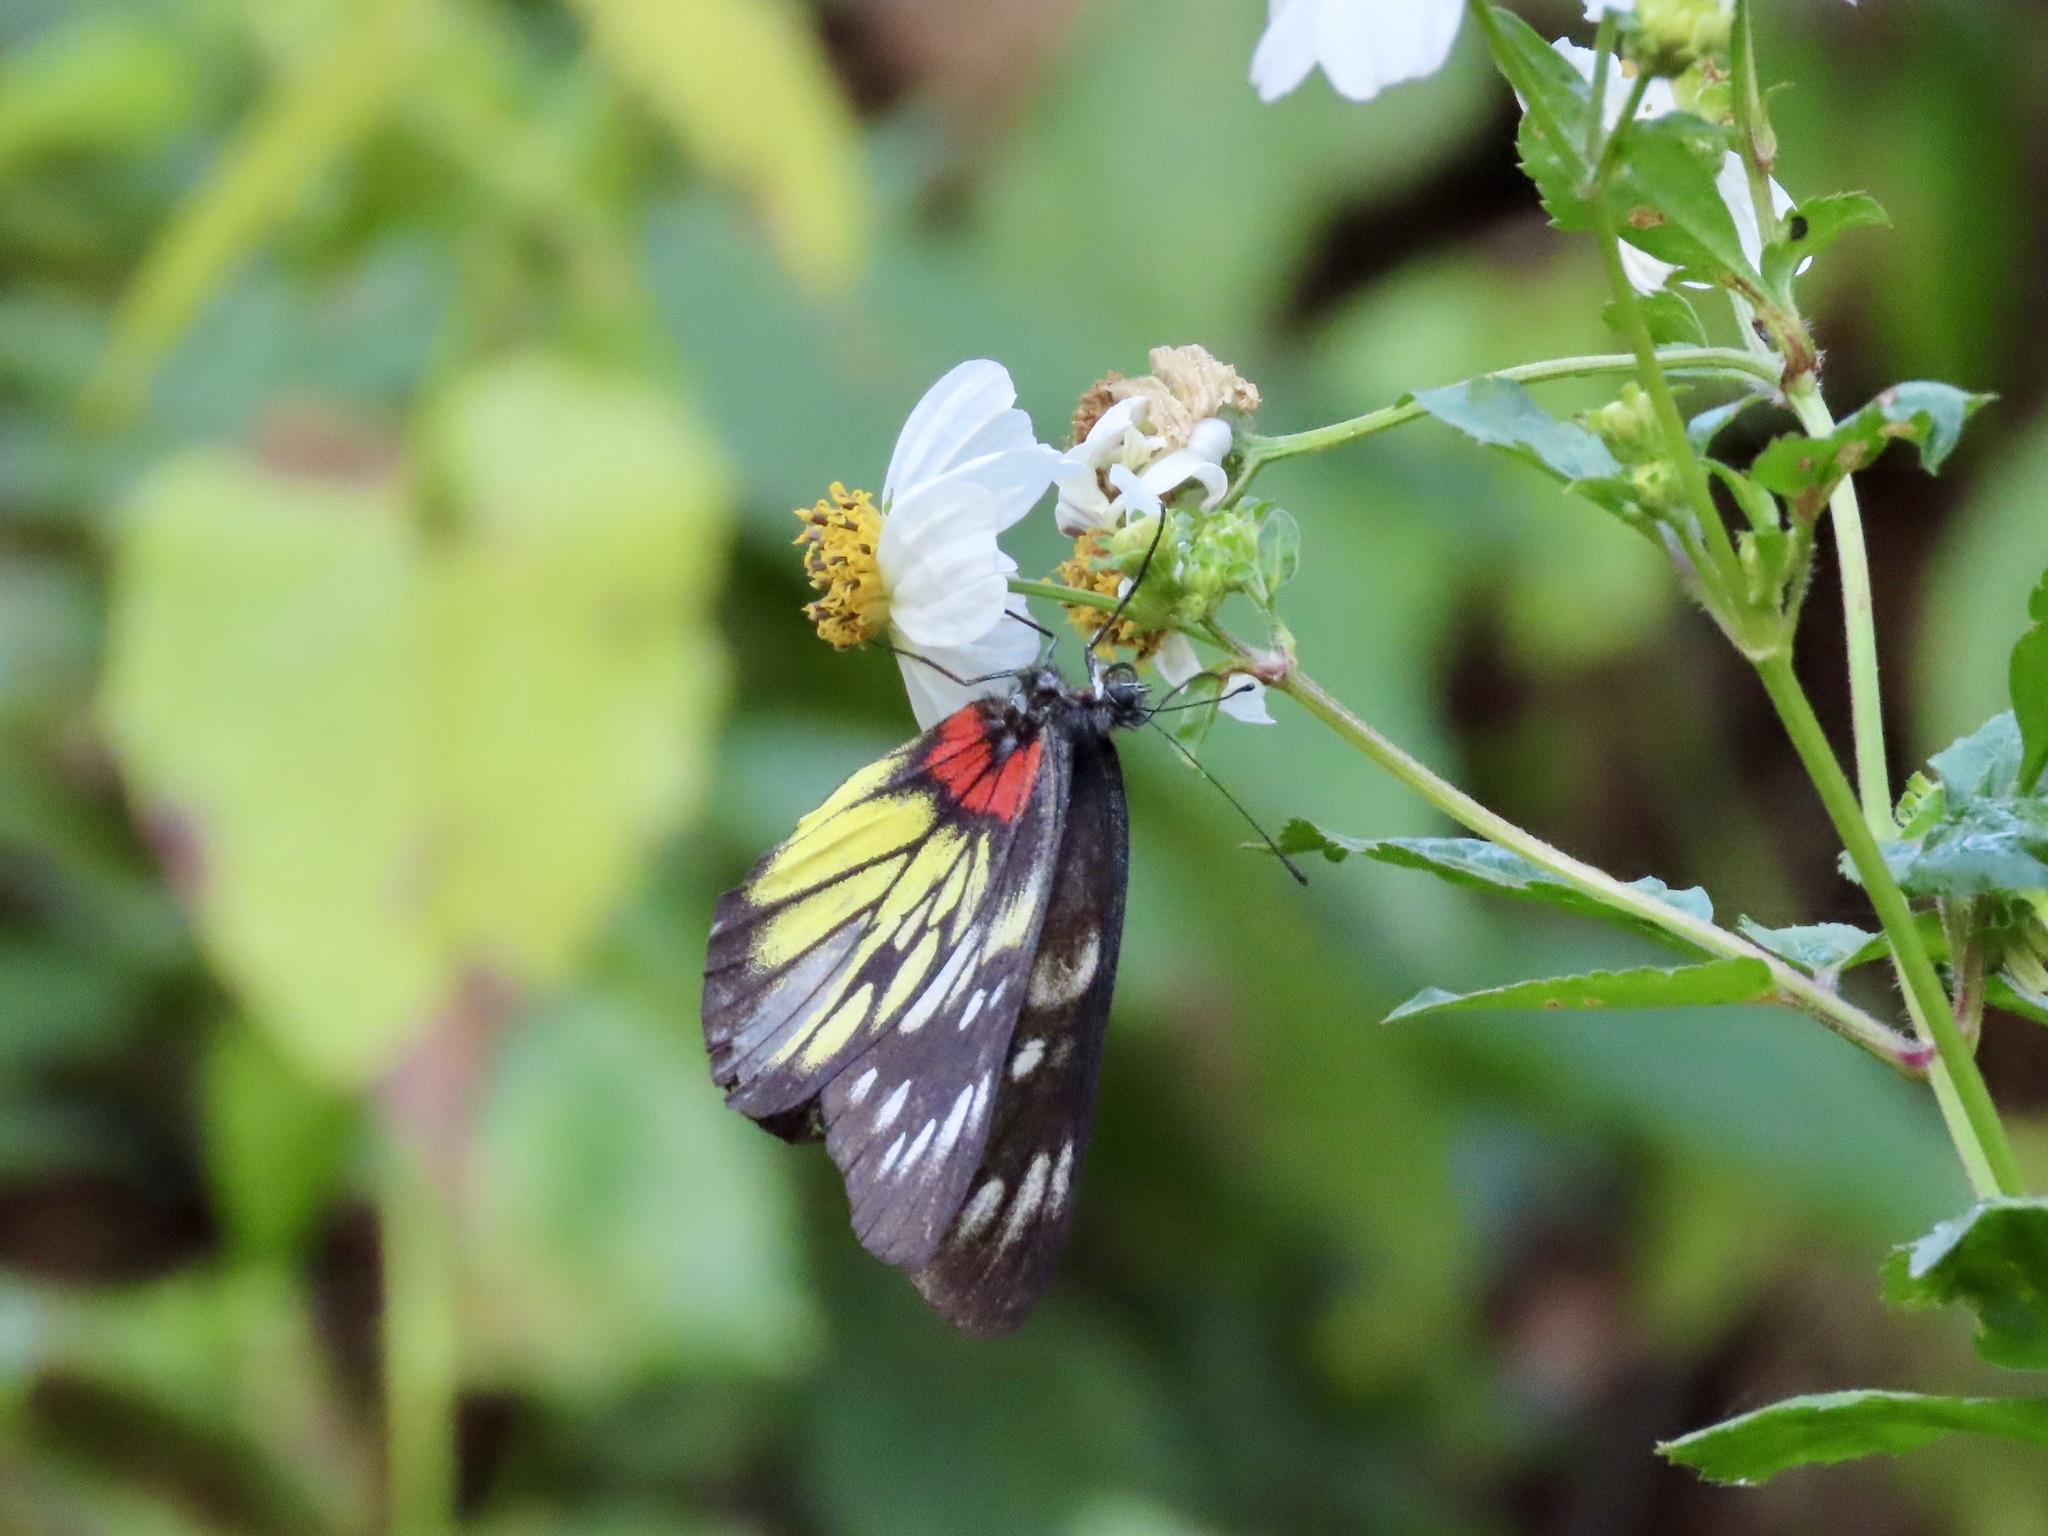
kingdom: Animalia
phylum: Arthropoda
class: Insecta
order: Lepidoptera
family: Pieridae
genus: Delias
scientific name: Delias pasithoe
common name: Red-base jezebel
